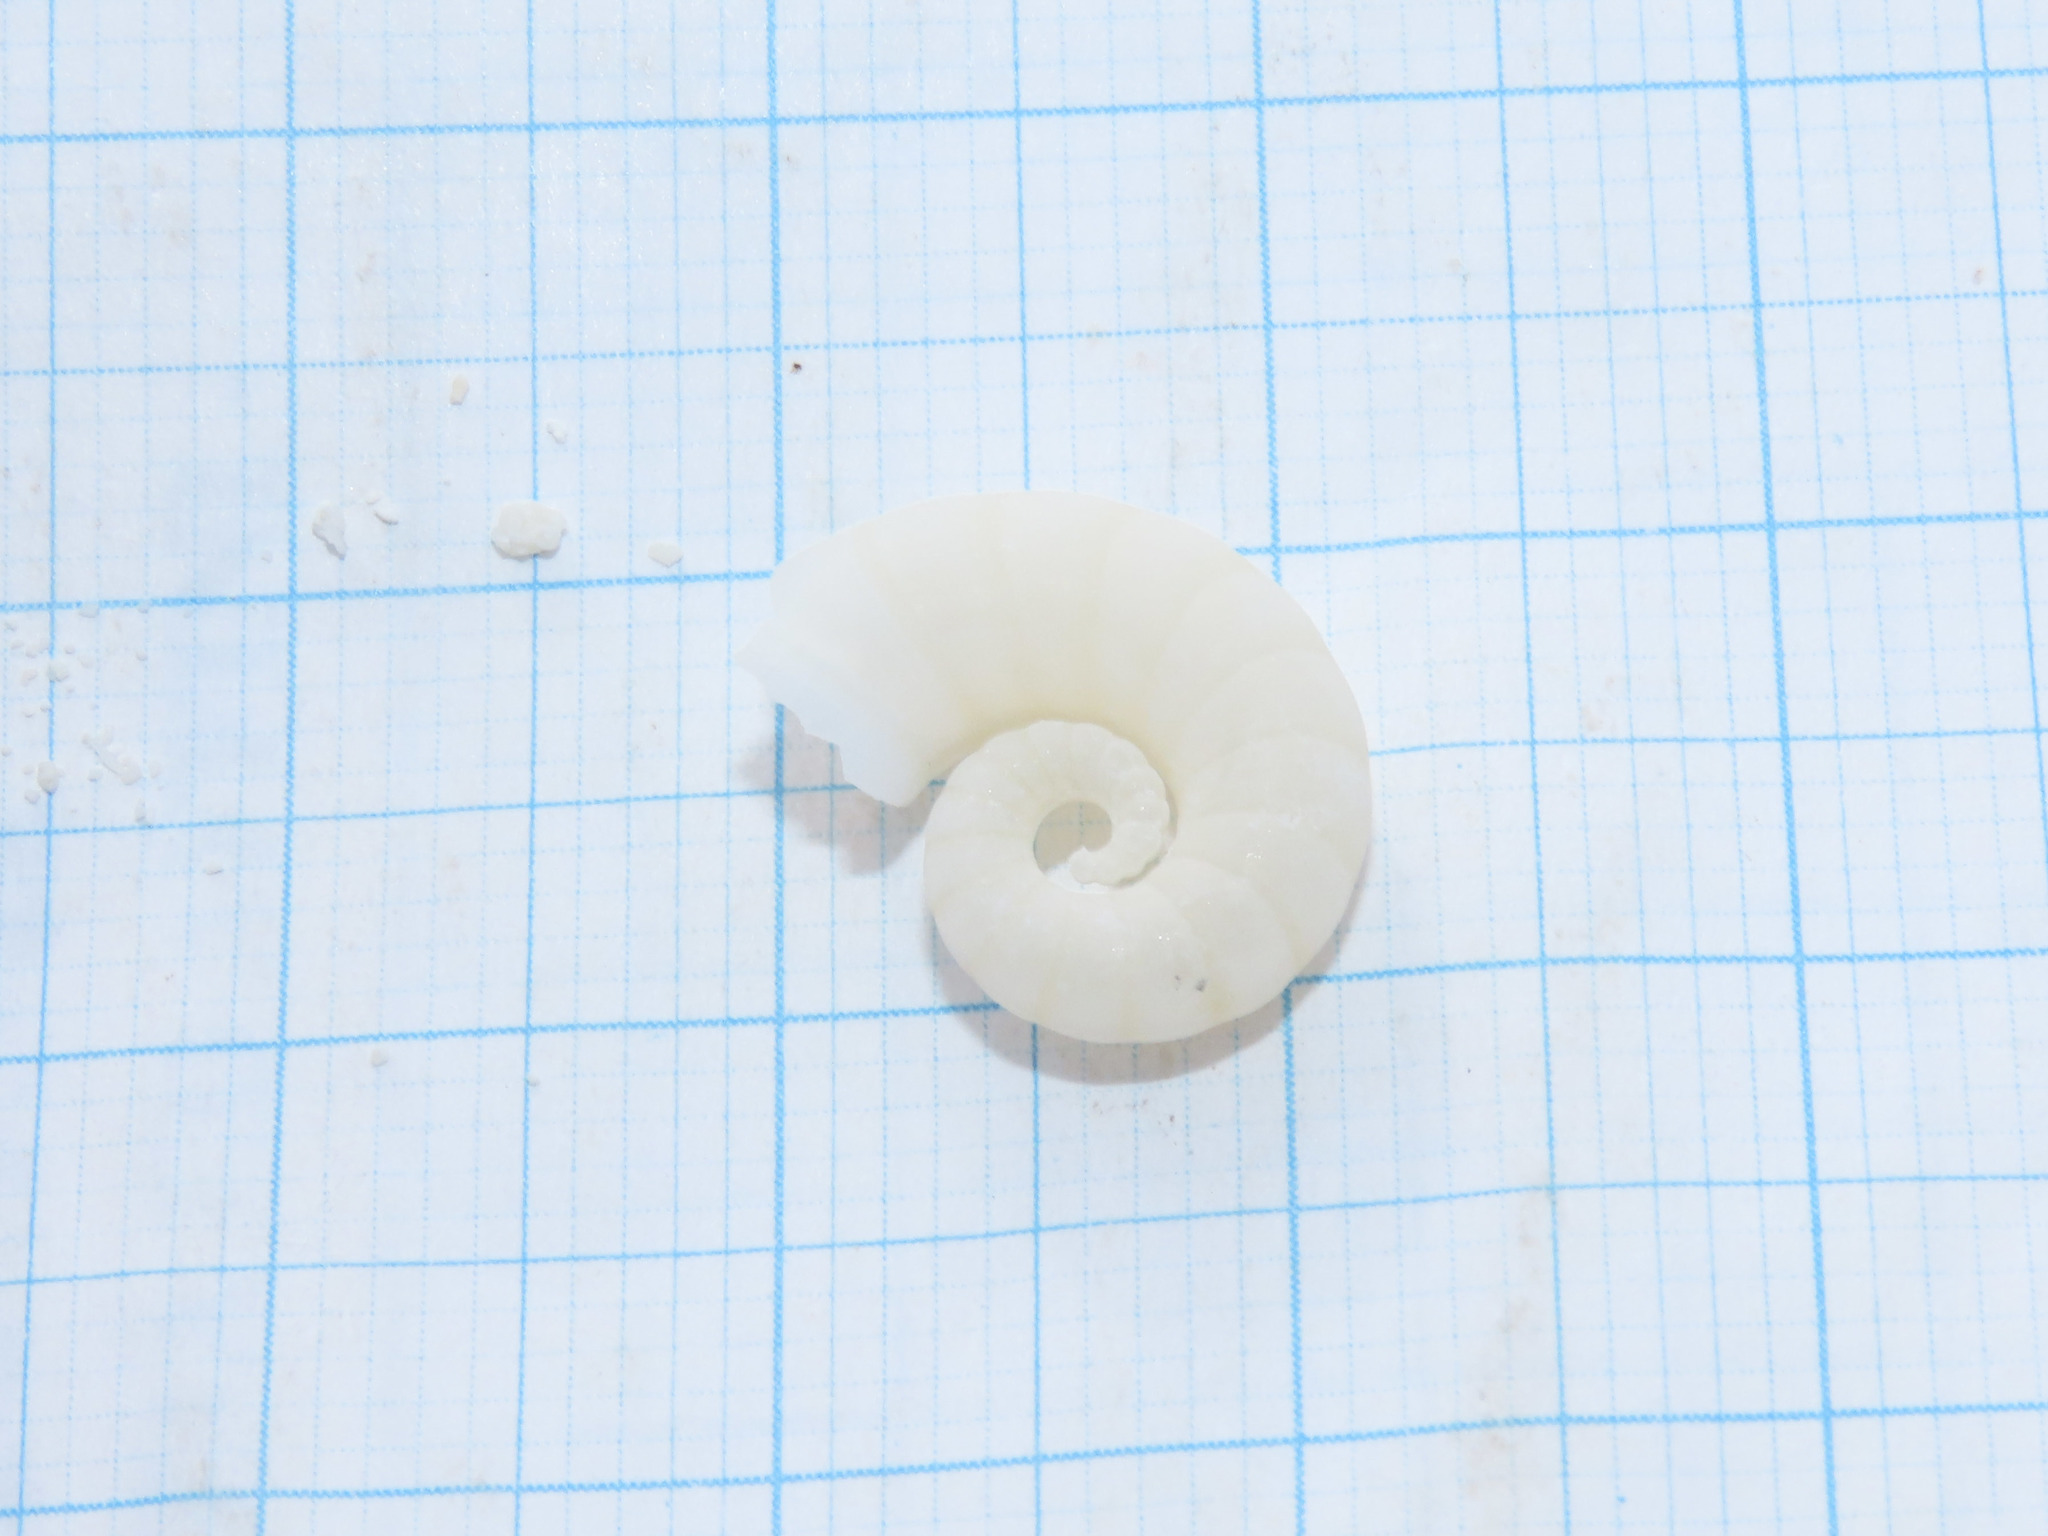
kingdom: Animalia
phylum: Mollusca
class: Cephalopoda
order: Spirulida
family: Spirulidae
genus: Spirula
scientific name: Spirula spirula
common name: Ram's horn squid
